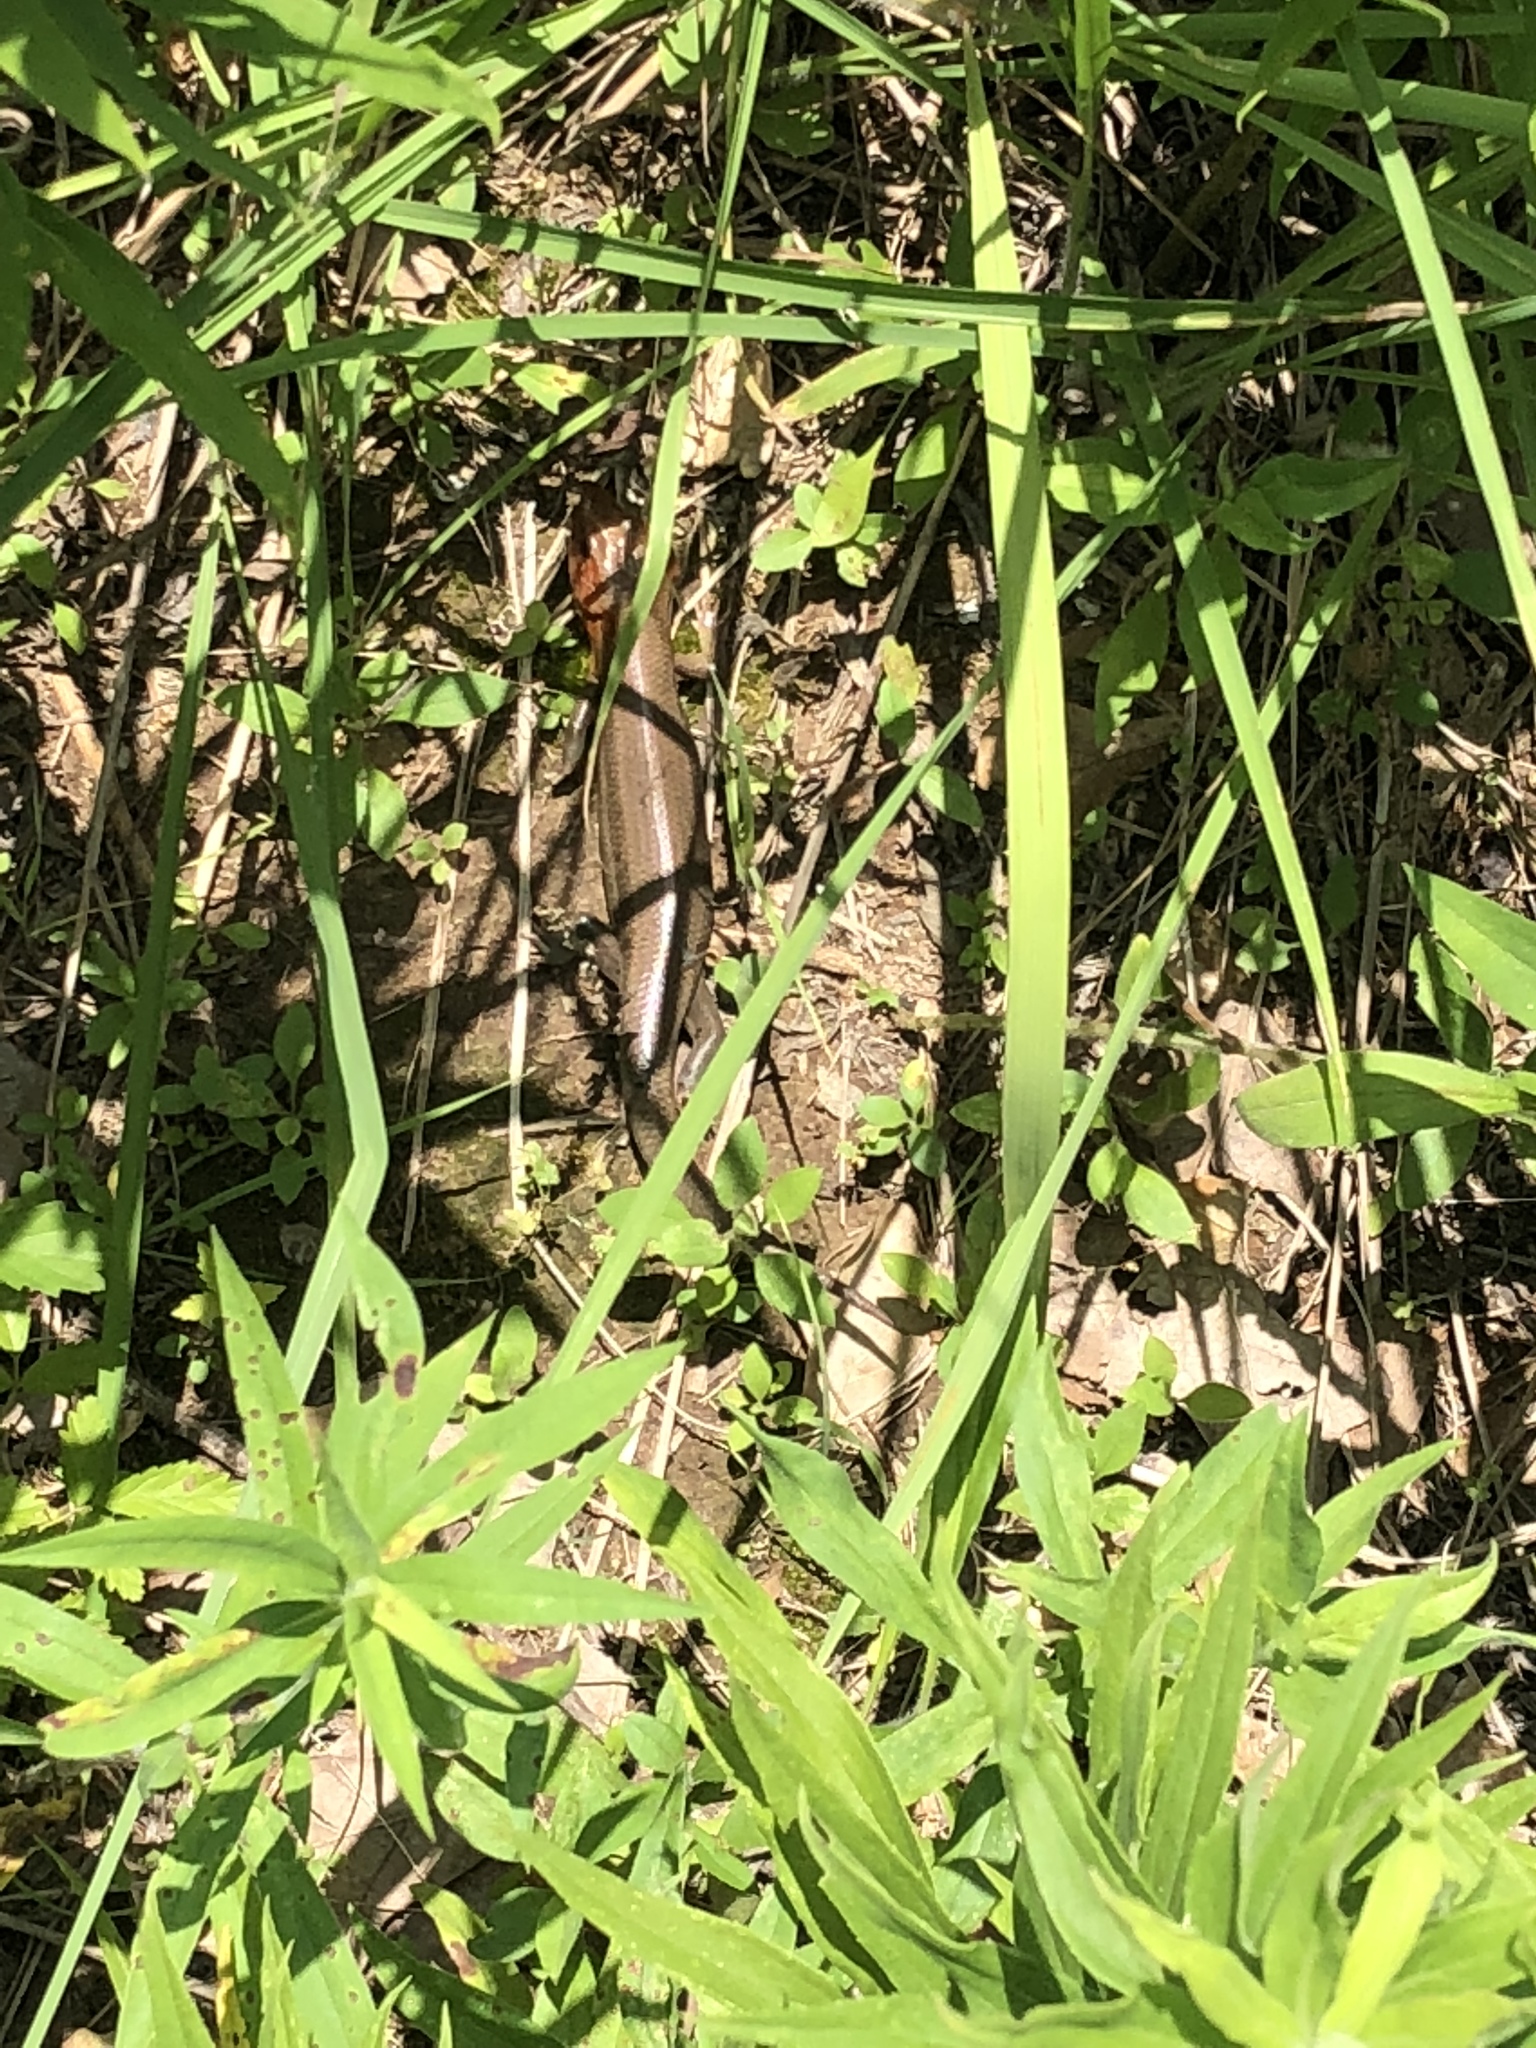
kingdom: Animalia
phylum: Chordata
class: Squamata
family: Scincidae
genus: Plestiodon
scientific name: Plestiodon laticeps
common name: Broadhead skink
